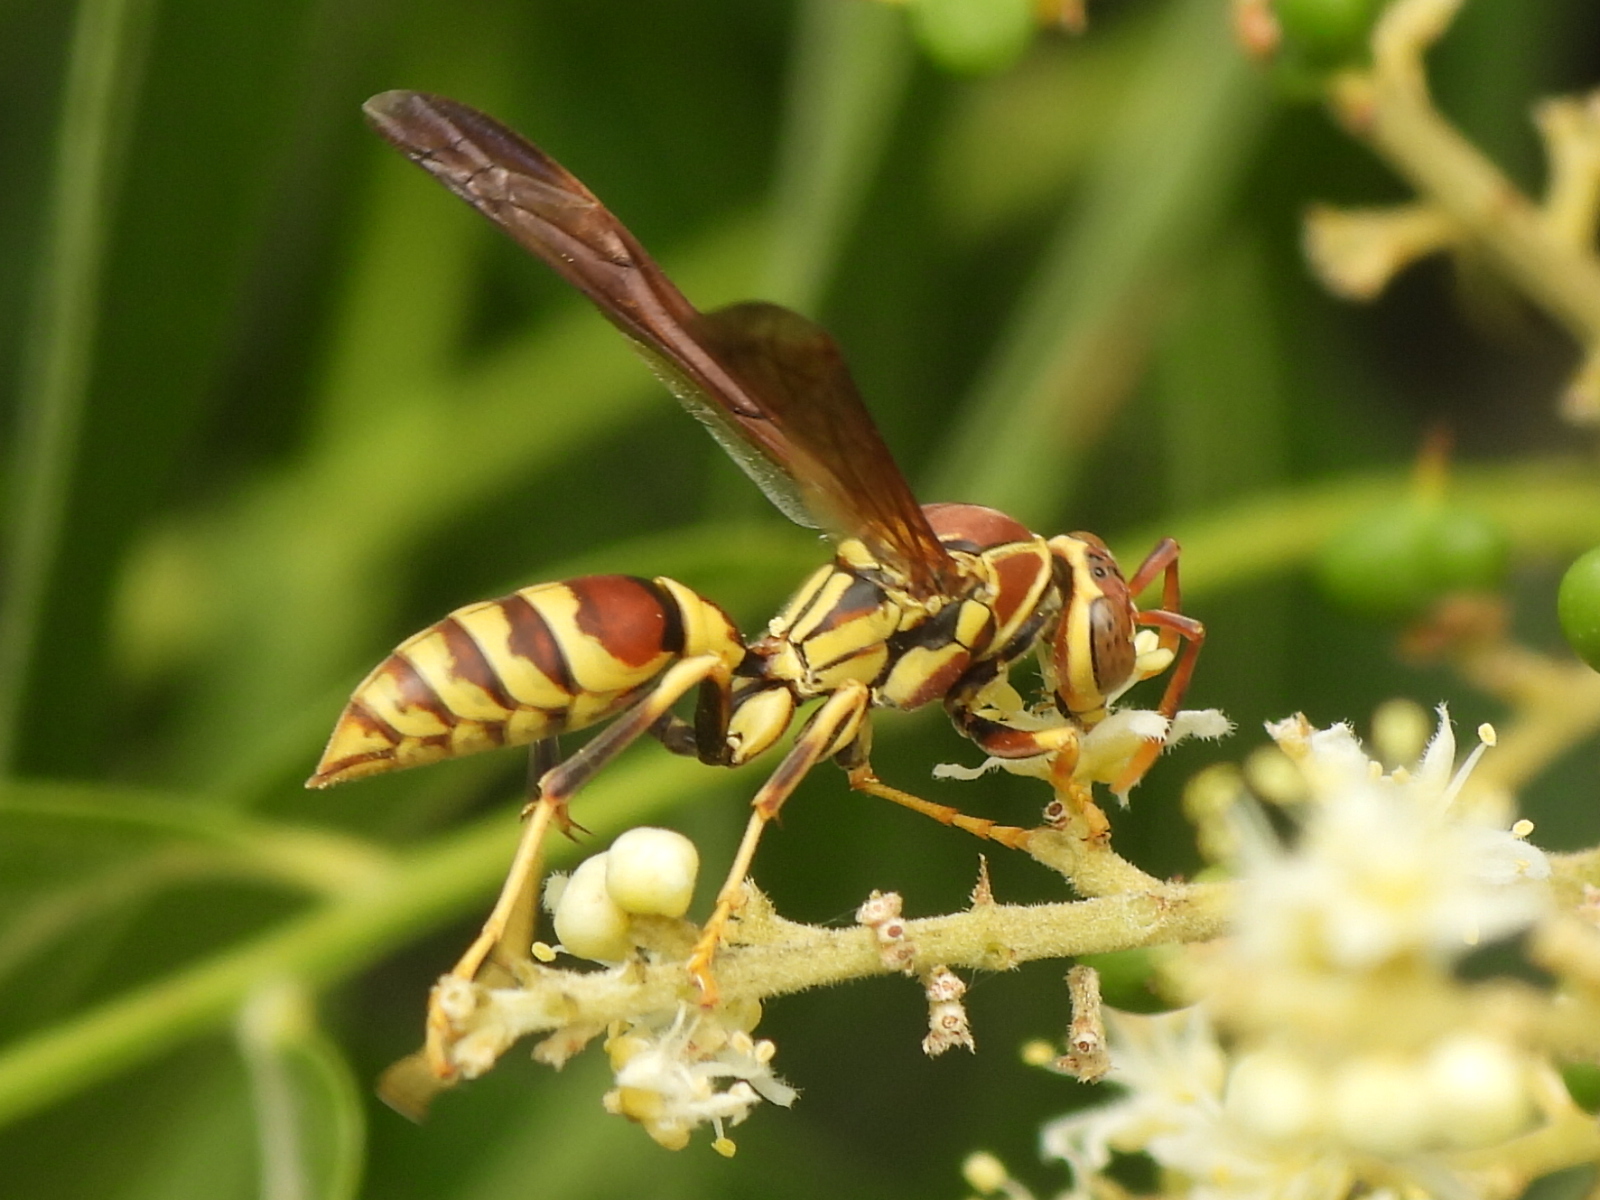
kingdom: Animalia
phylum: Arthropoda
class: Insecta
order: Hymenoptera
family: Eumenidae
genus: Polistes
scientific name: Polistes exclamans
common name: Paper wasp
